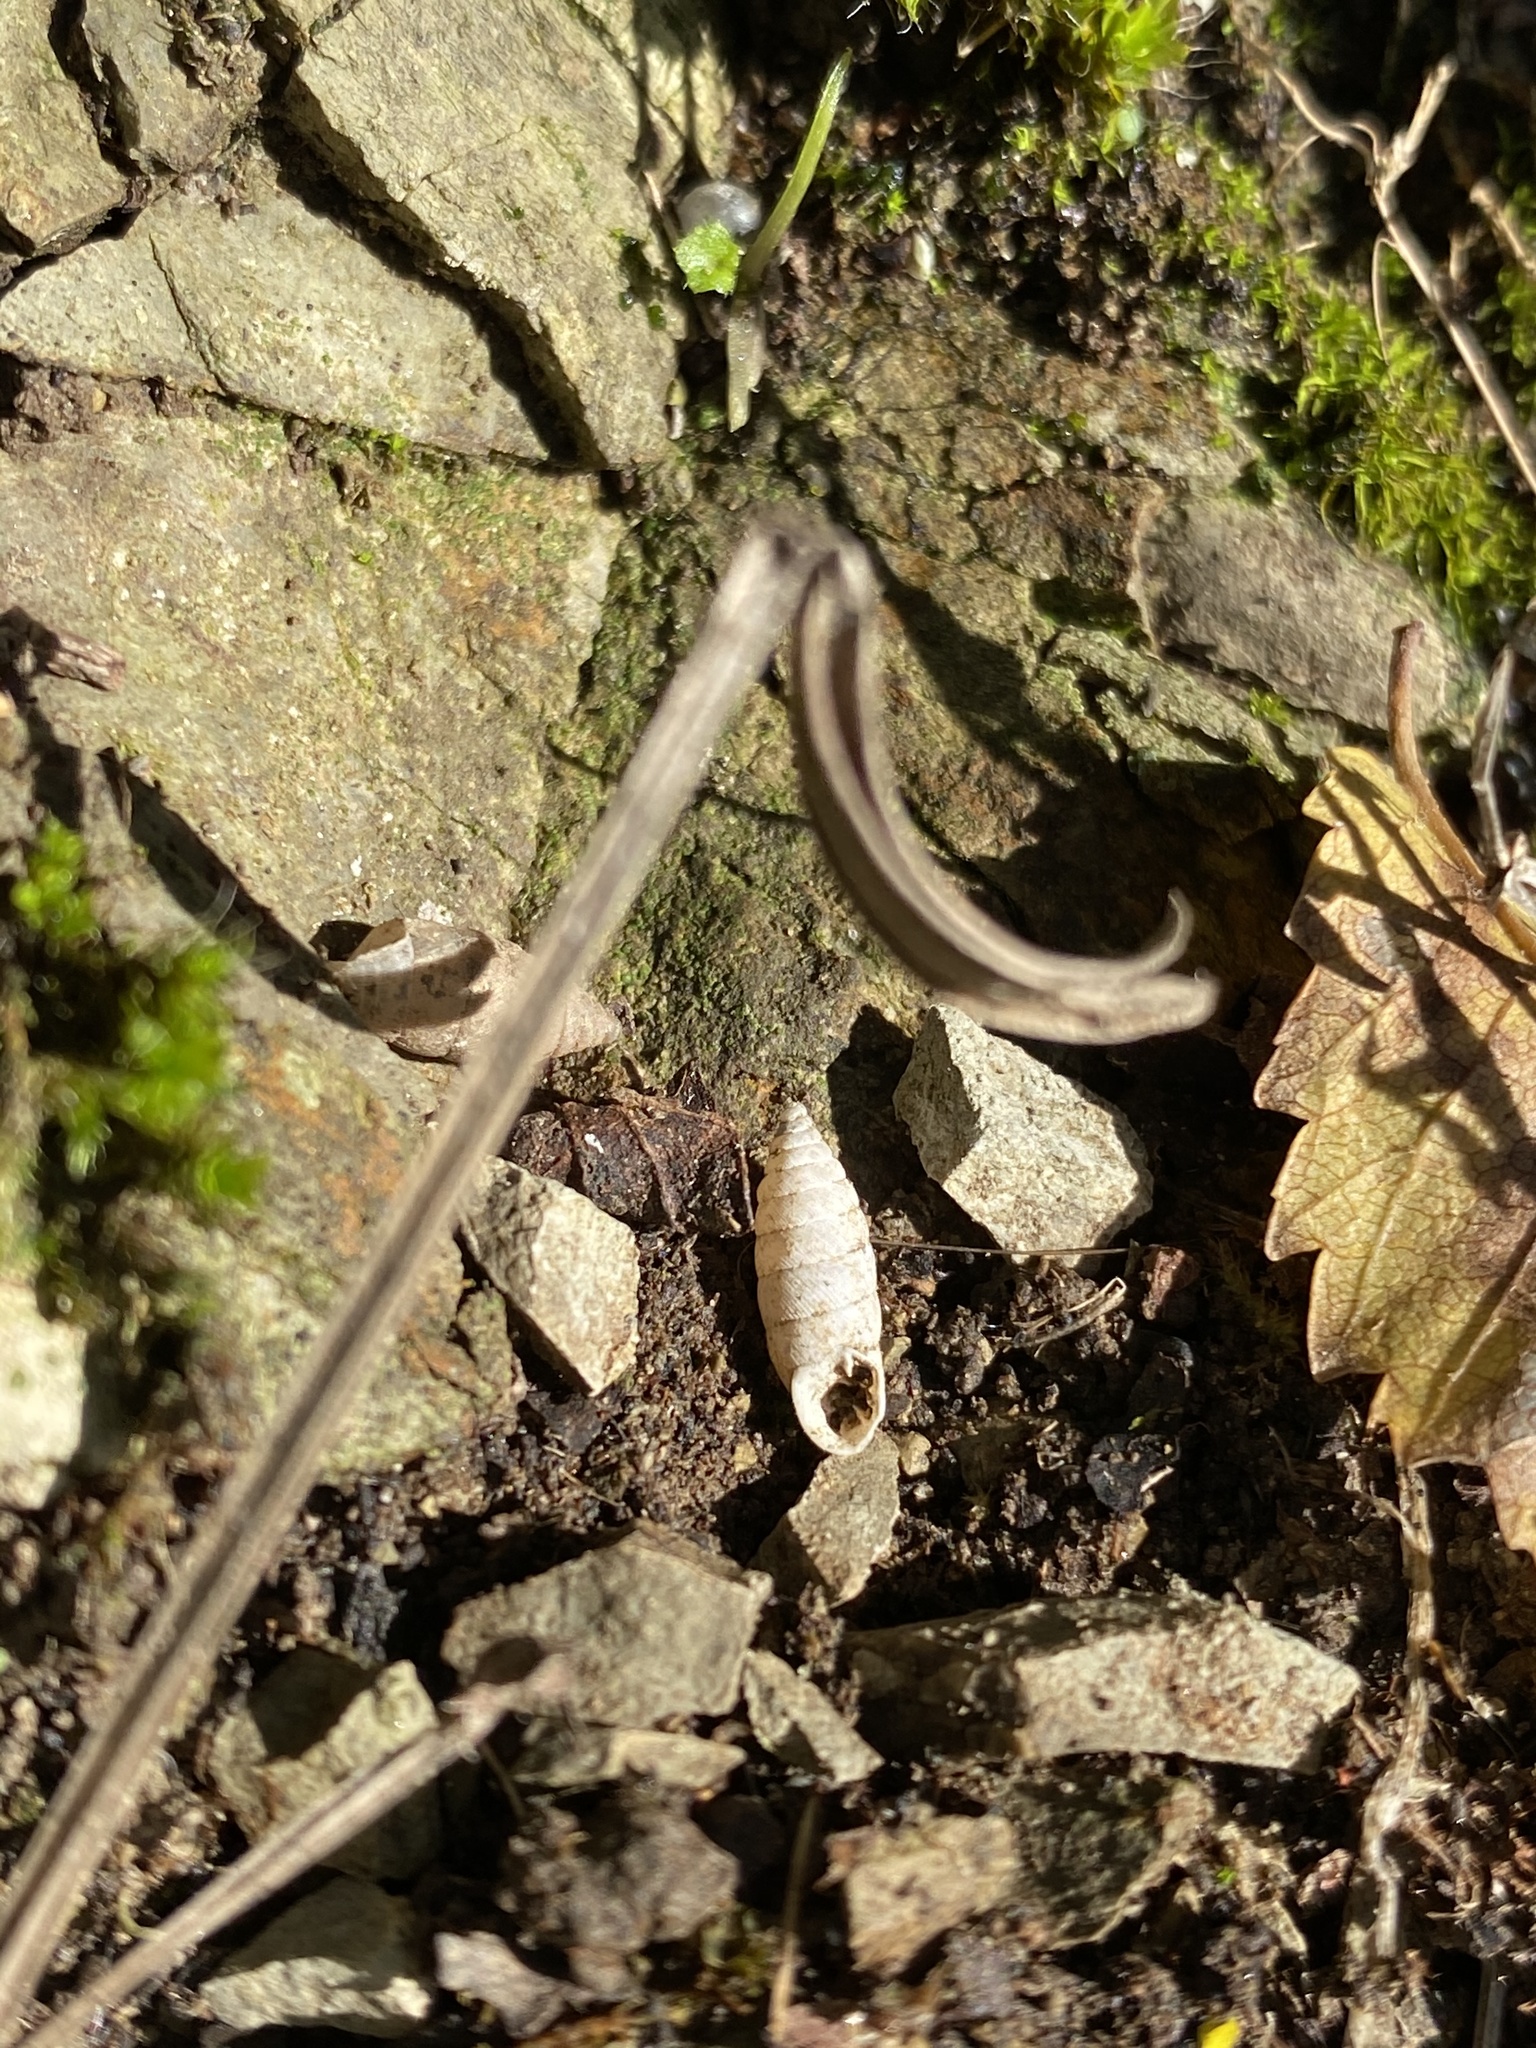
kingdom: Animalia
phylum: Mollusca
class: Gastropoda
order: Stylommatophora
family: Chondrinidae
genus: Granaria
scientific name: Granaria frumentum
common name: An air-breathing land snail
